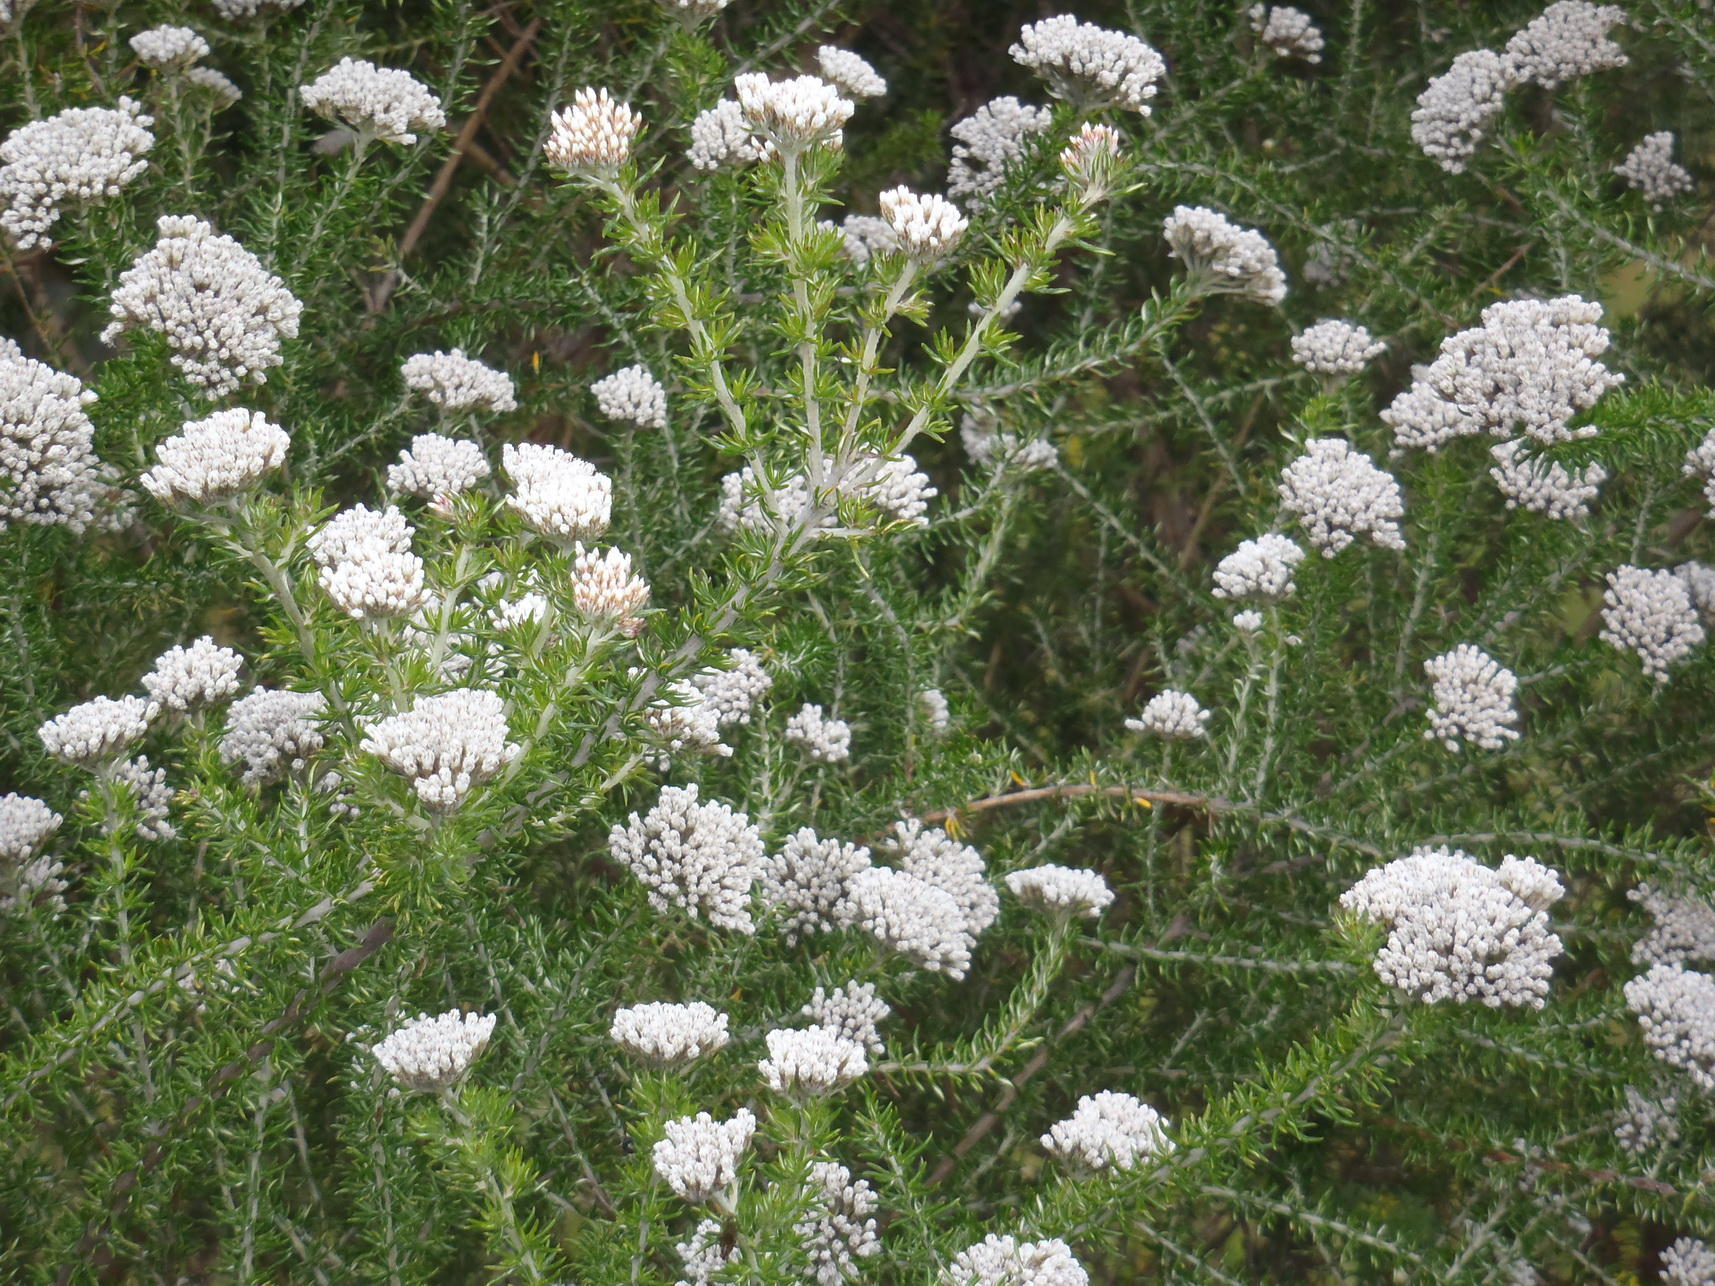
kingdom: Plantae
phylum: Tracheophyta
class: Magnoliopsida
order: Asterales
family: Asteraceae
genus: Metalasia
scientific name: Metalasia densa
